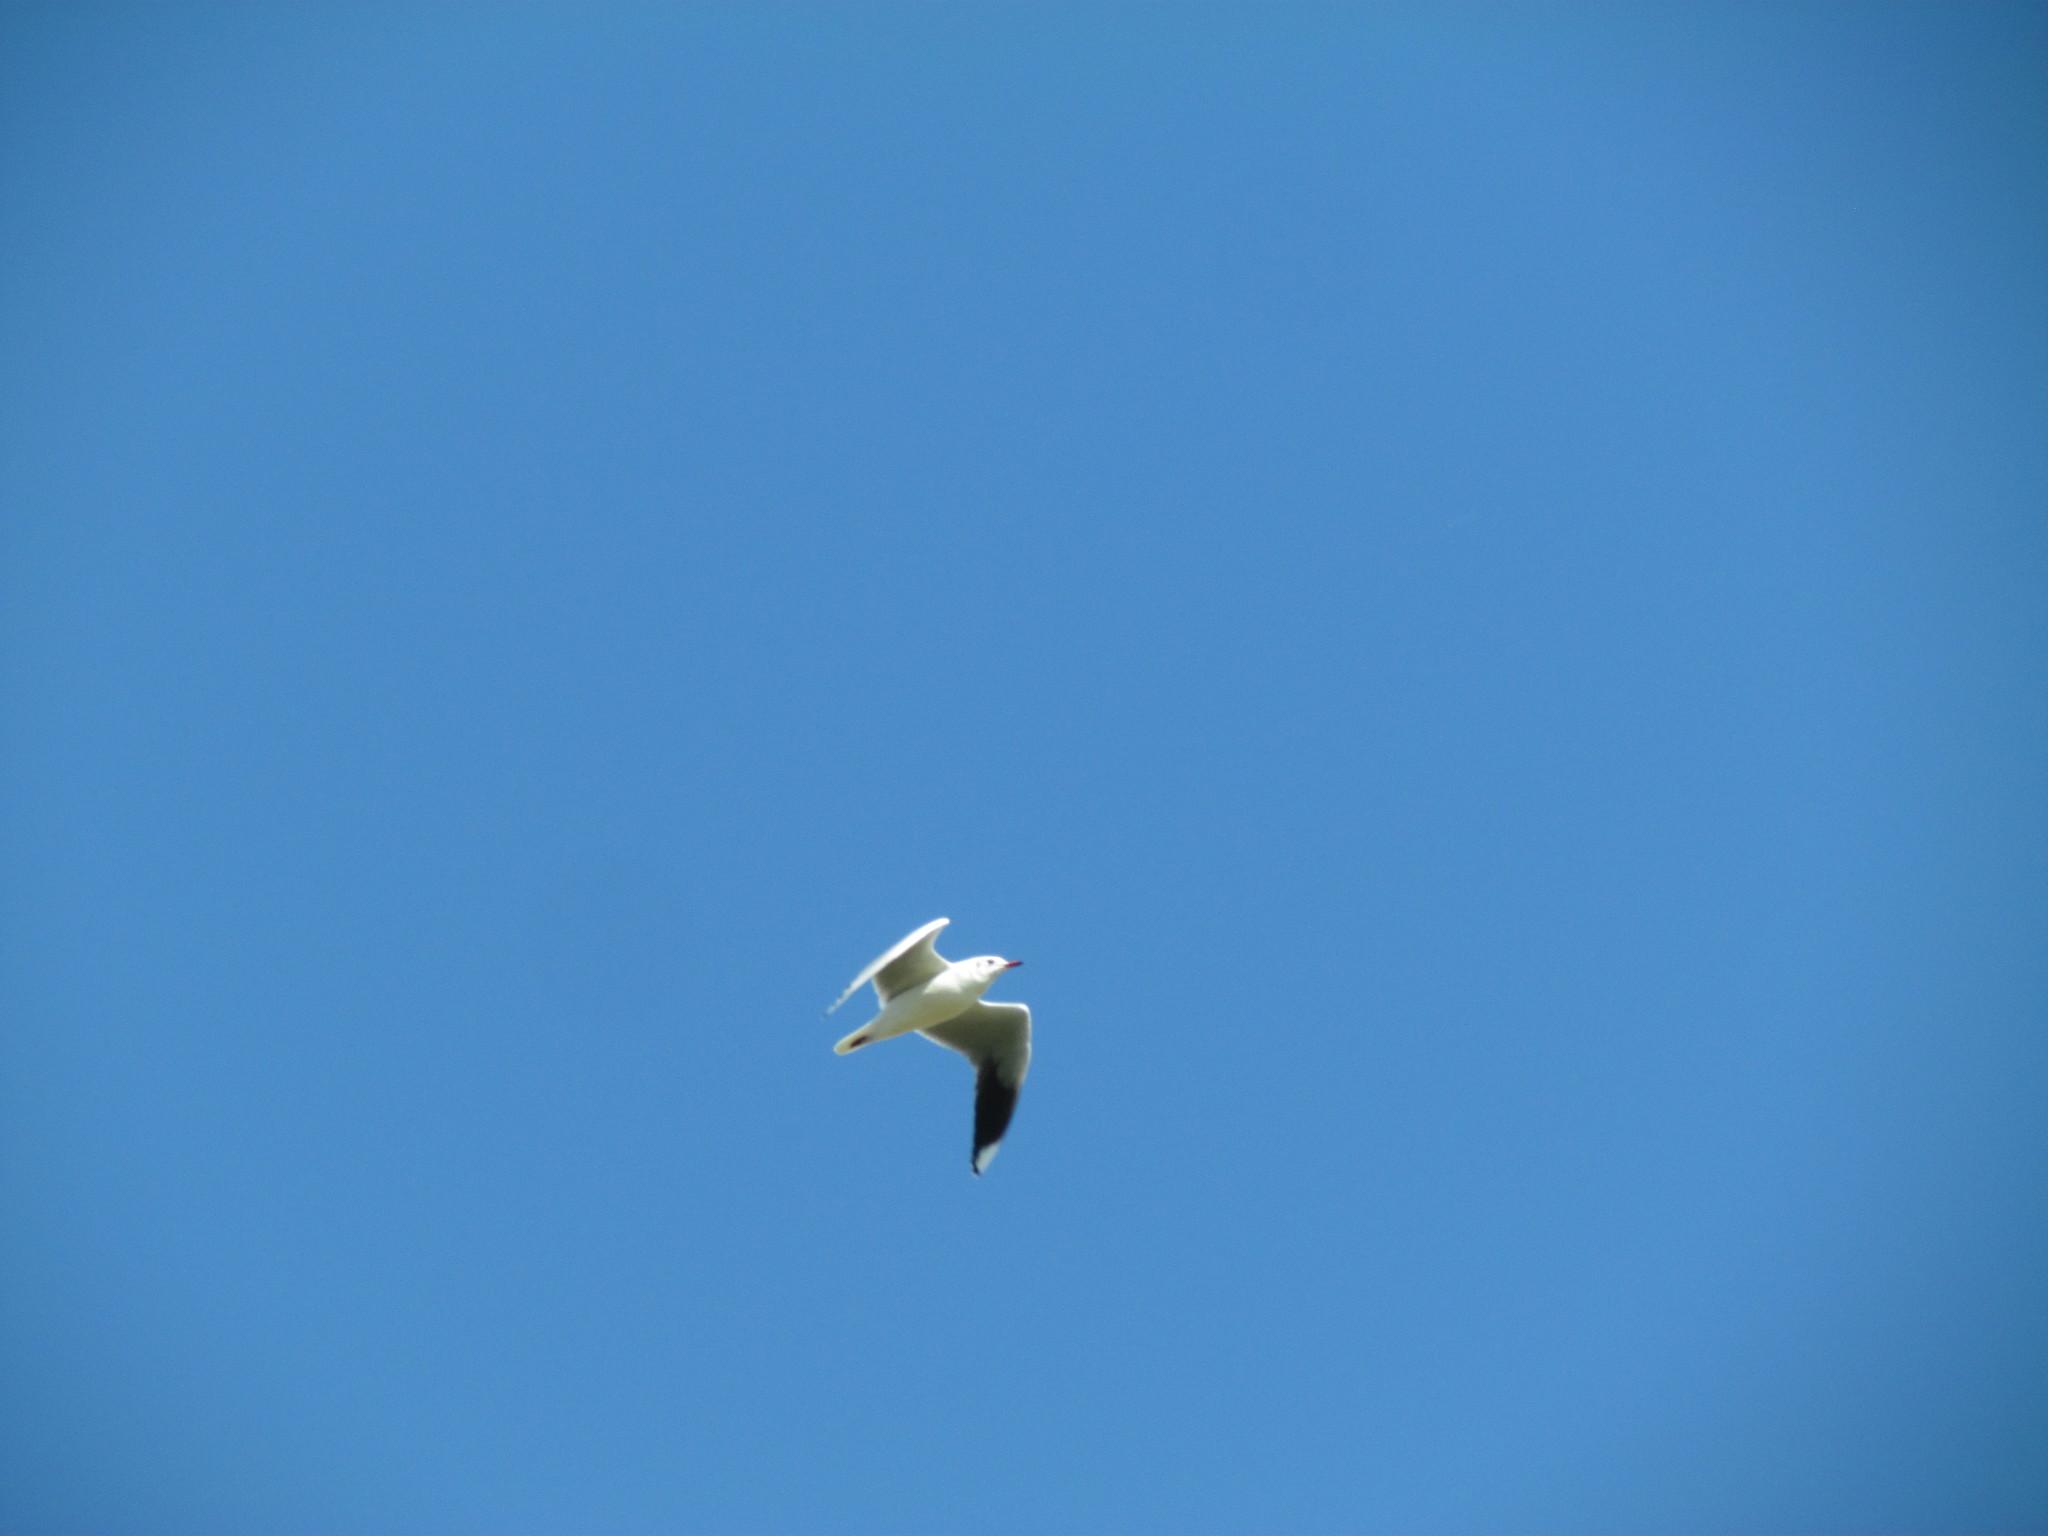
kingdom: Animalia
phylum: Chordata
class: Aves
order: Charadriiformes
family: Laridae
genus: Chroicocephalus
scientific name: Chroicocephalus maculipennis
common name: Brown-hooded gull
